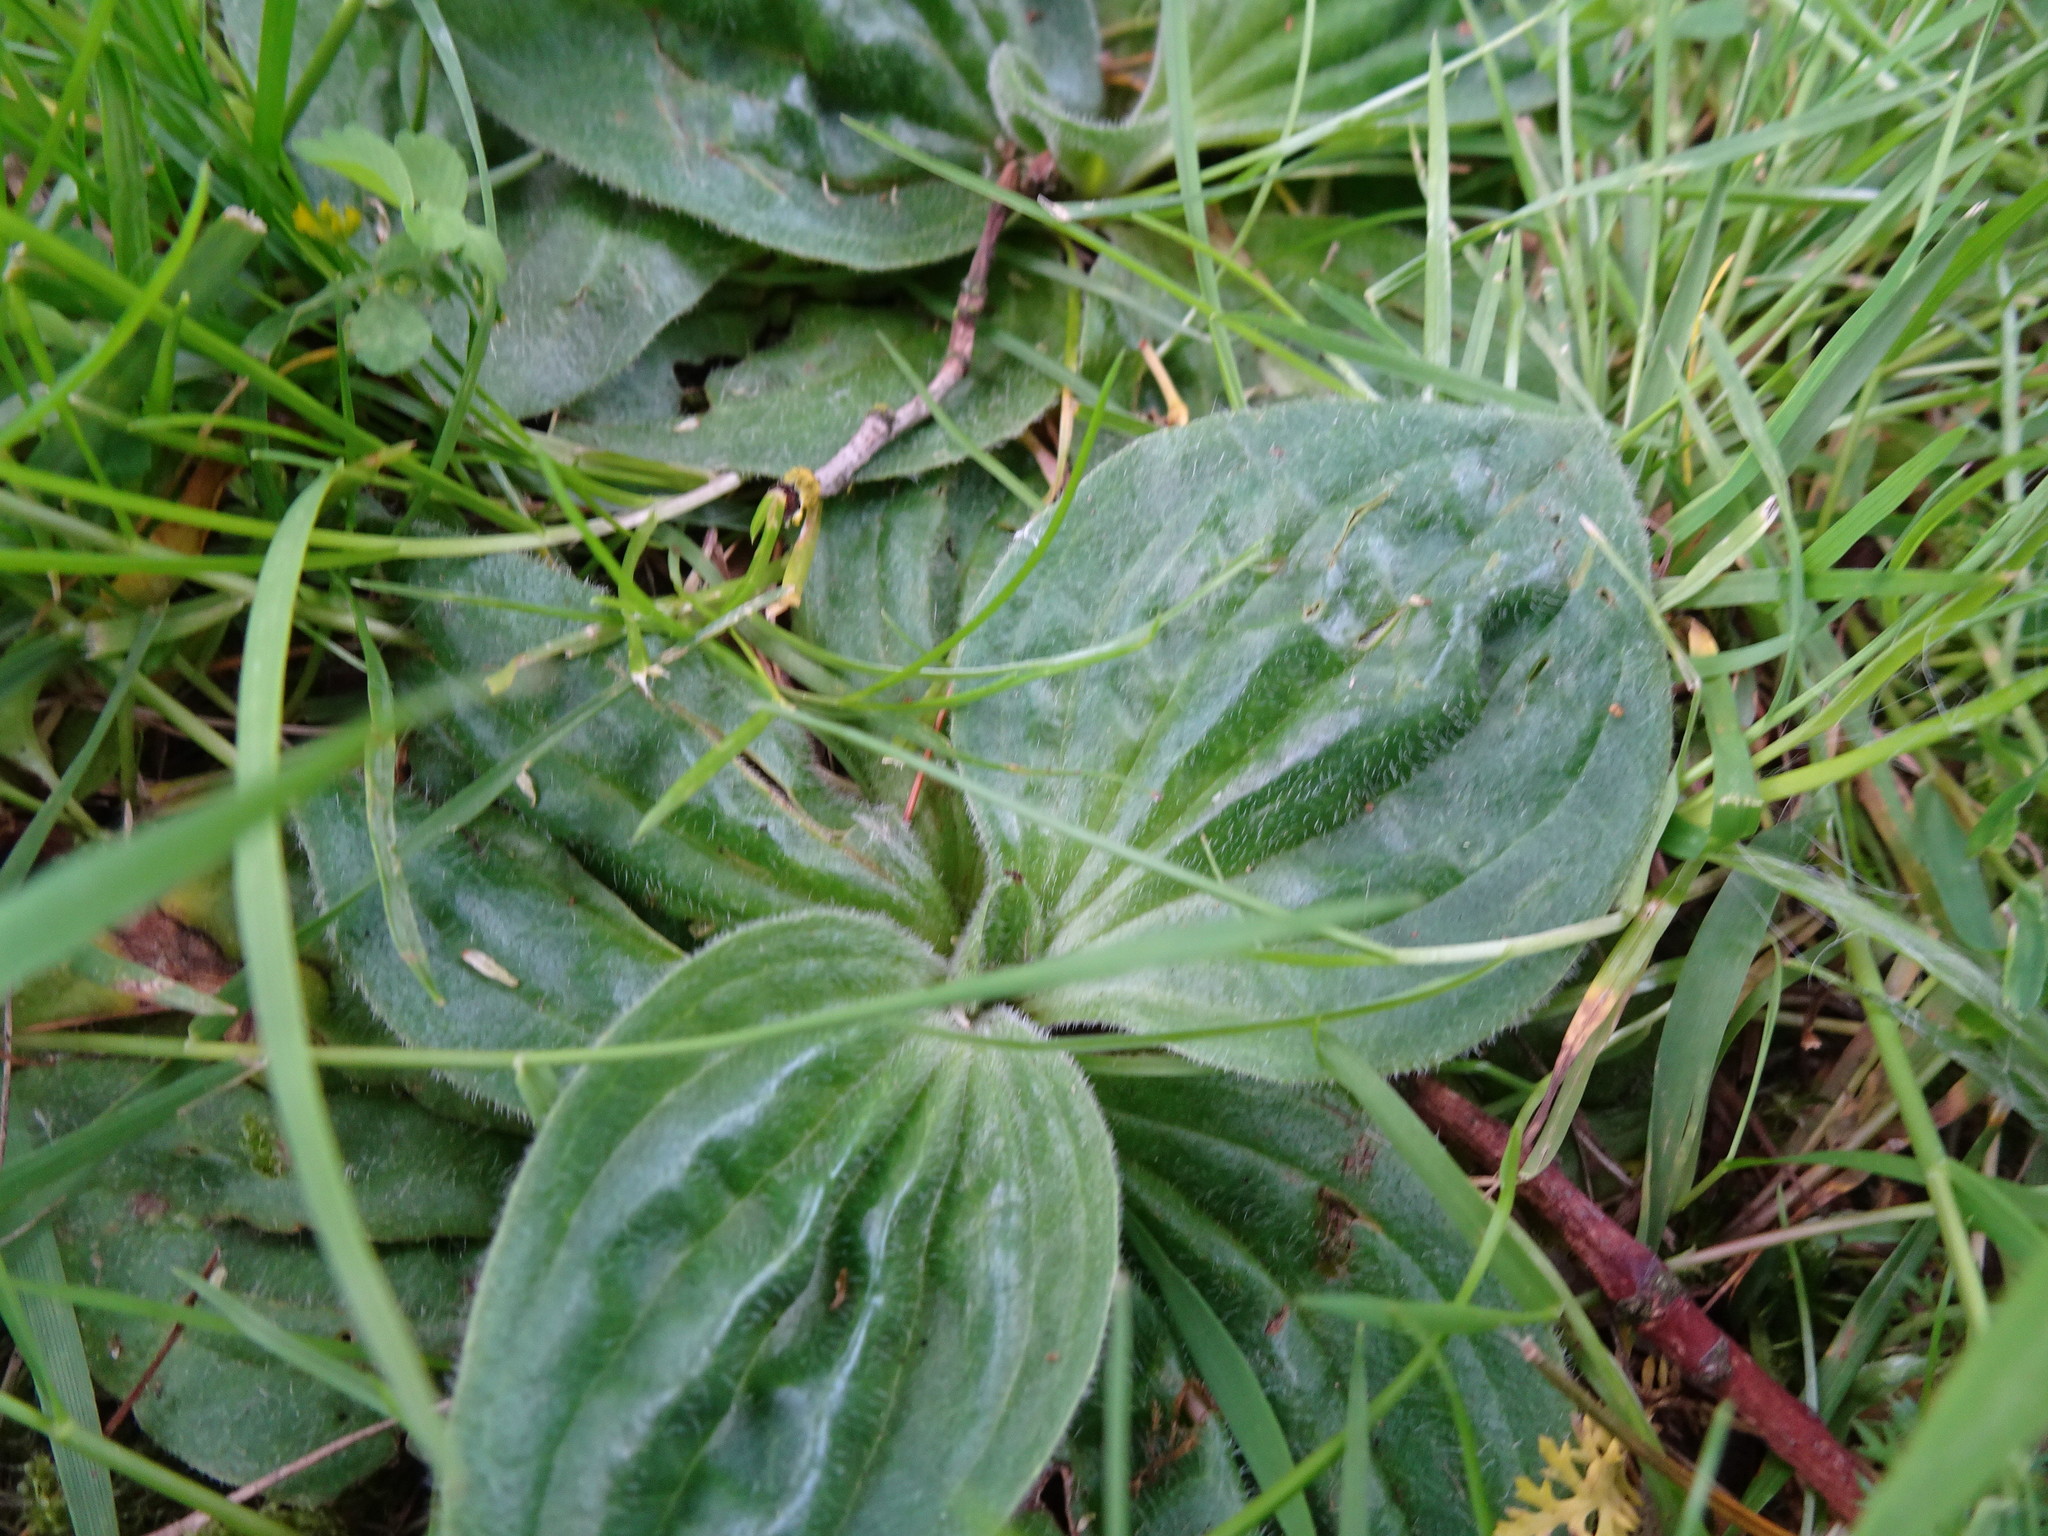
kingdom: Plantae
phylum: Tracheophyta
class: Magnoliopsida
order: Lamiales
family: Plantaginaceae
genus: Plantago
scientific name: Plantago media
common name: Hoary plantain
